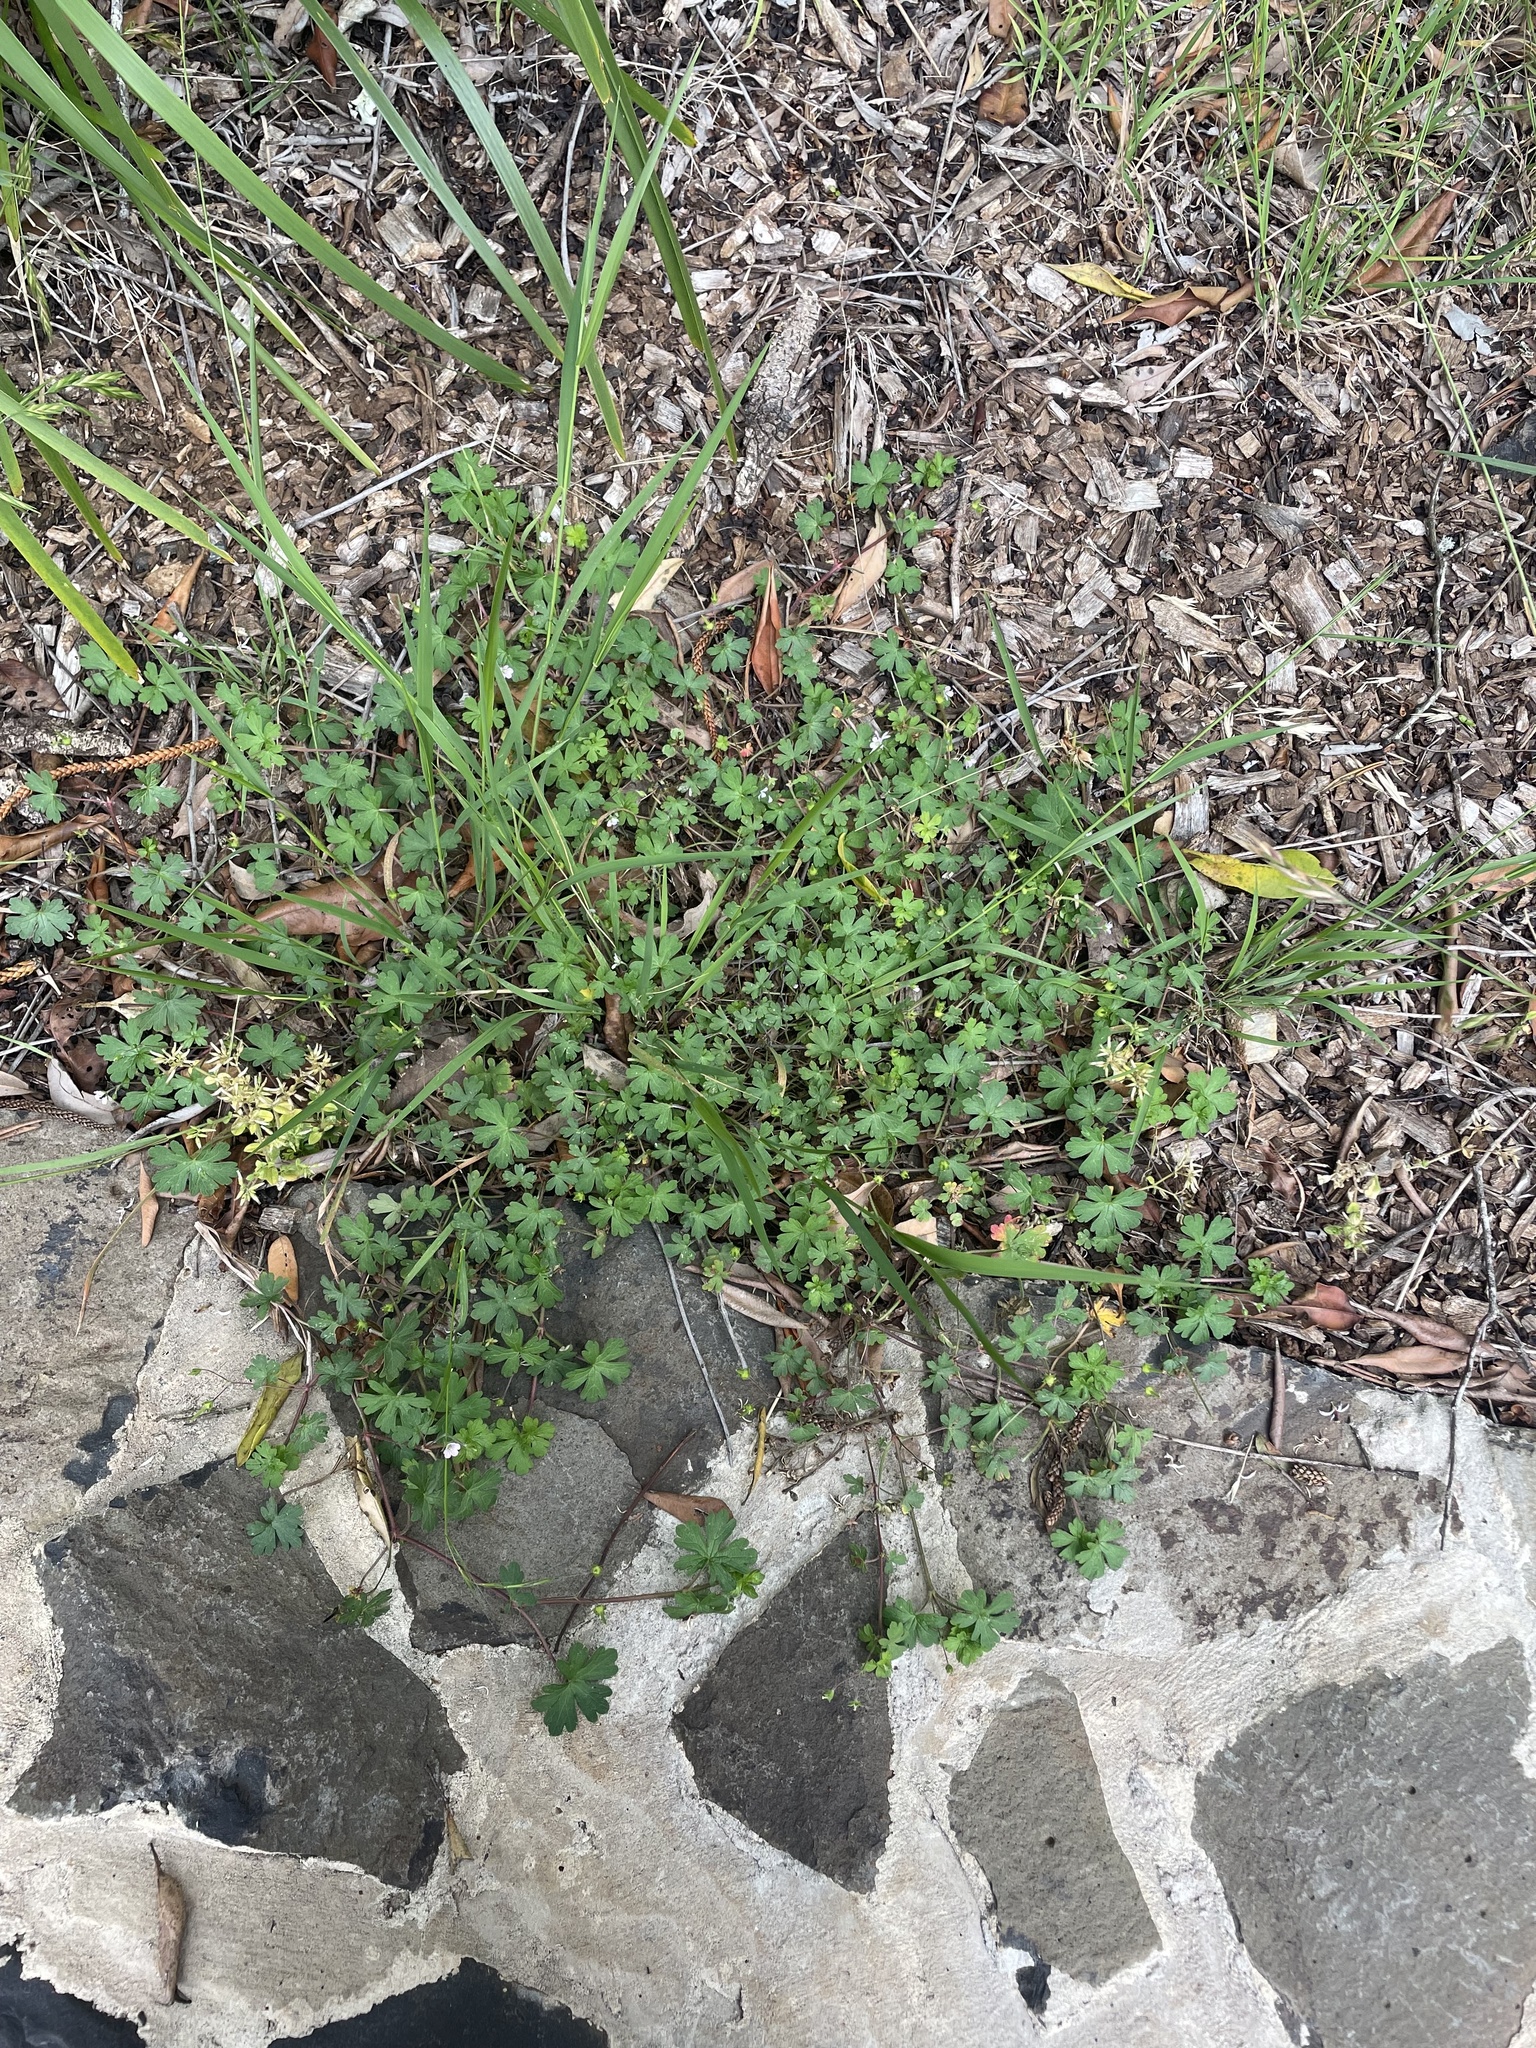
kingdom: Plantae
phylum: Tracheophyta
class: Magnoliopsida
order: Geraniales
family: Geraniaceae
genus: Geranium
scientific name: Geranium solanderi
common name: Solander's geranium
